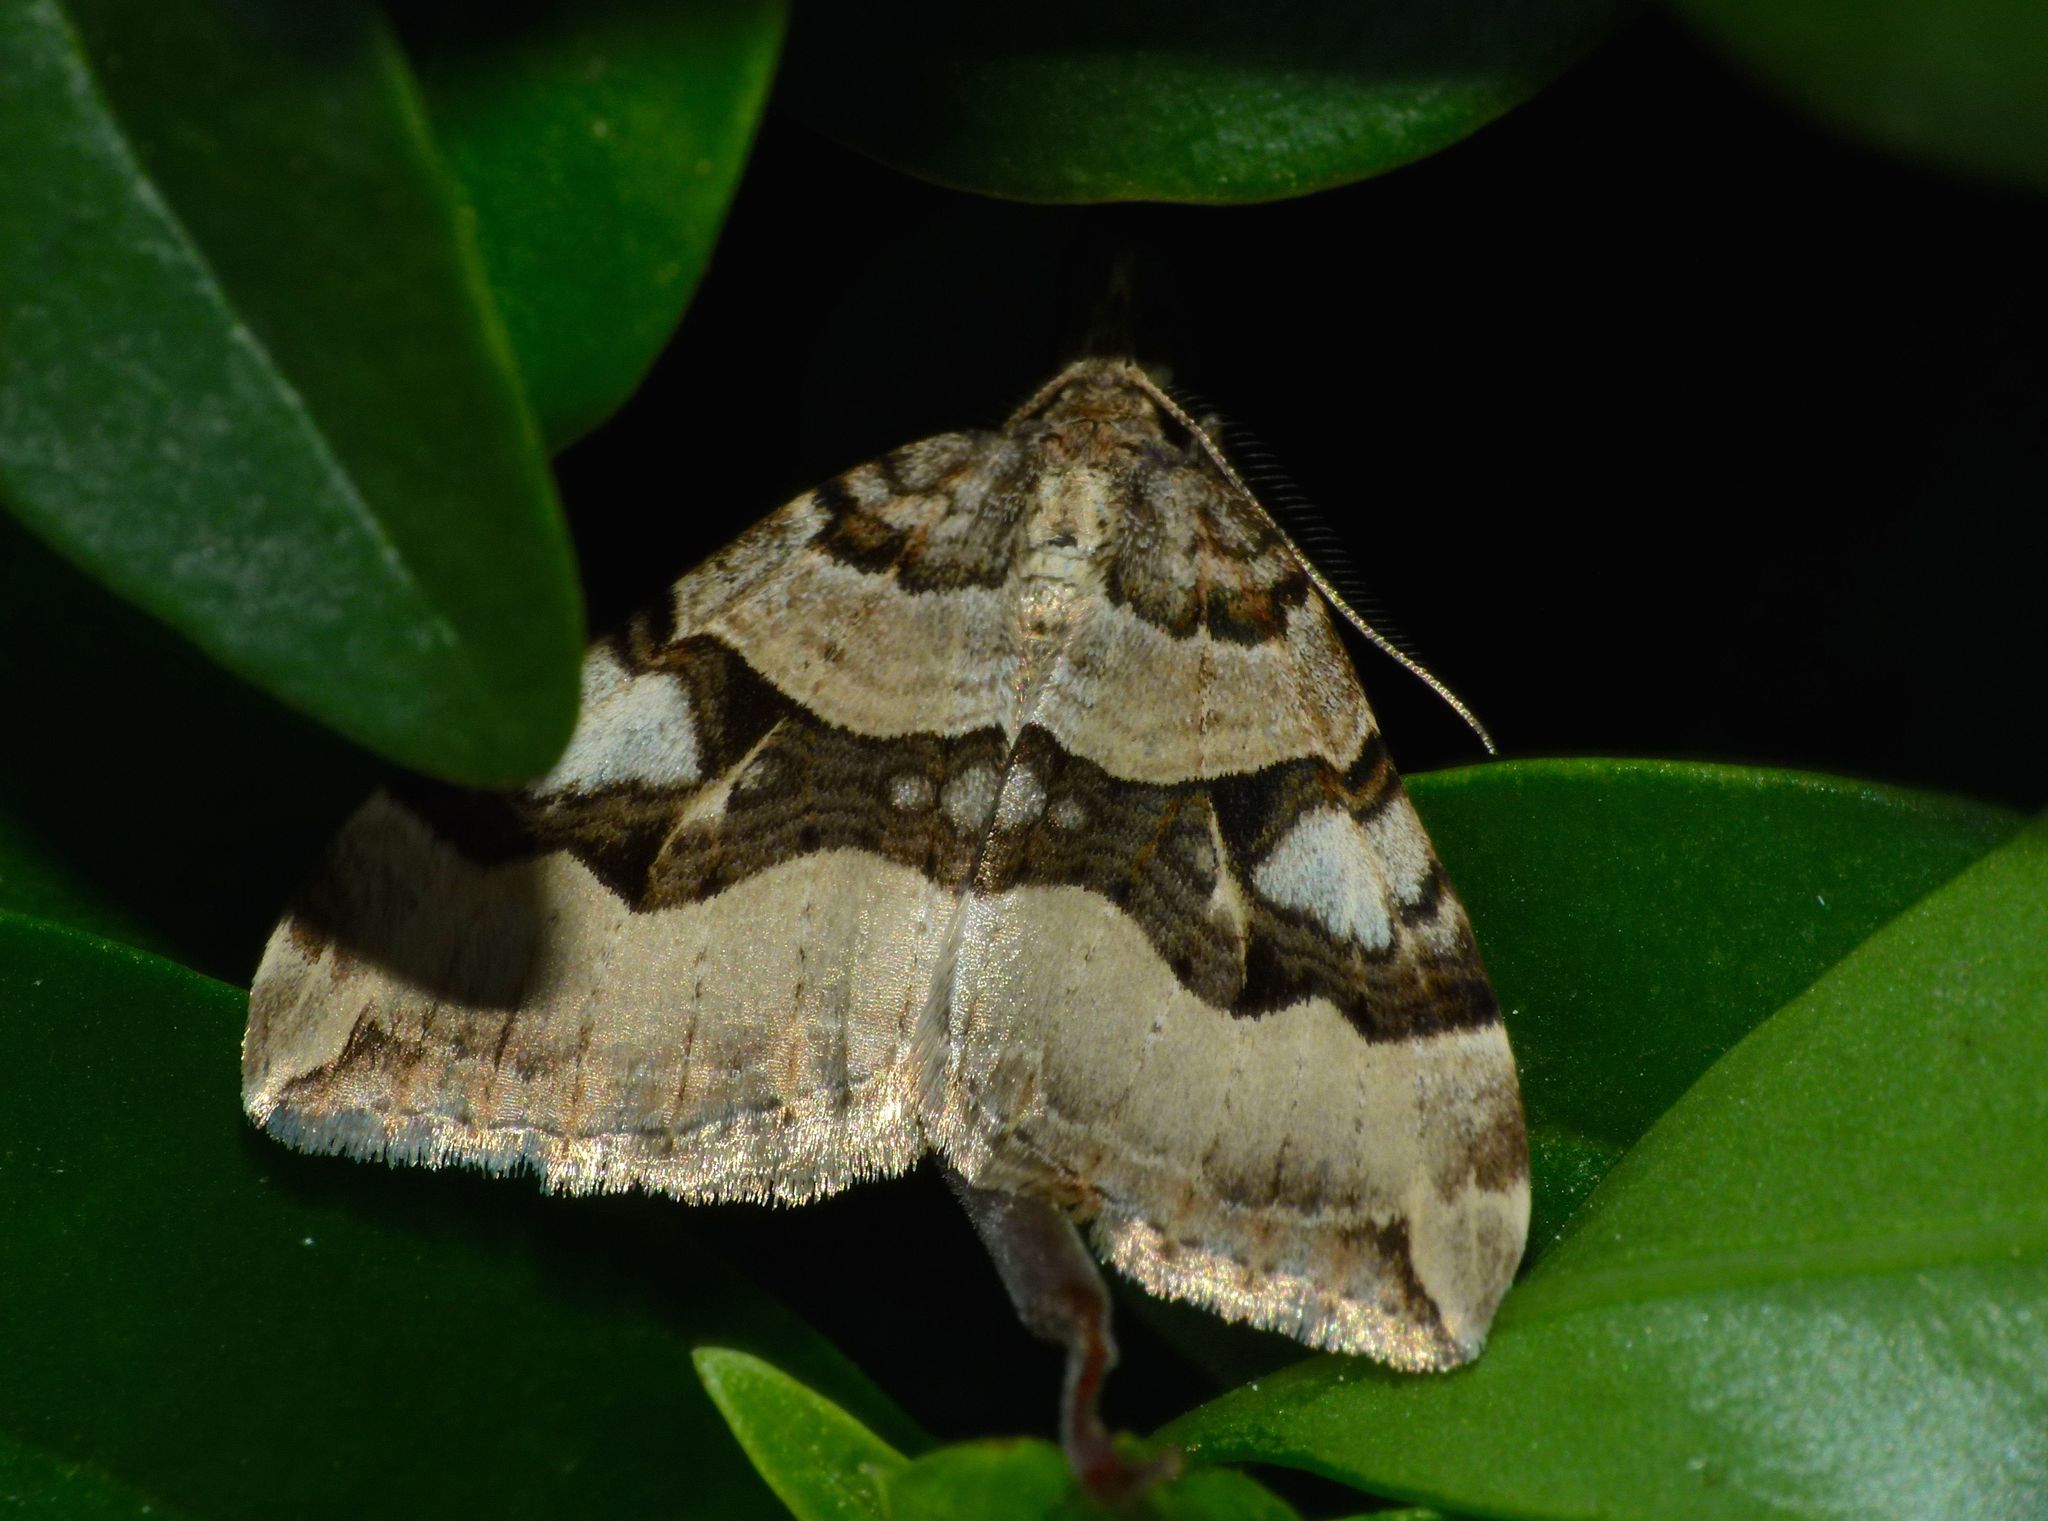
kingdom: Animalia
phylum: Arthropoda
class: Insecta
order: Lepidoptera
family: Geometridae
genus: Xanthorhoe
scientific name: Xanthorhoe semifissata
